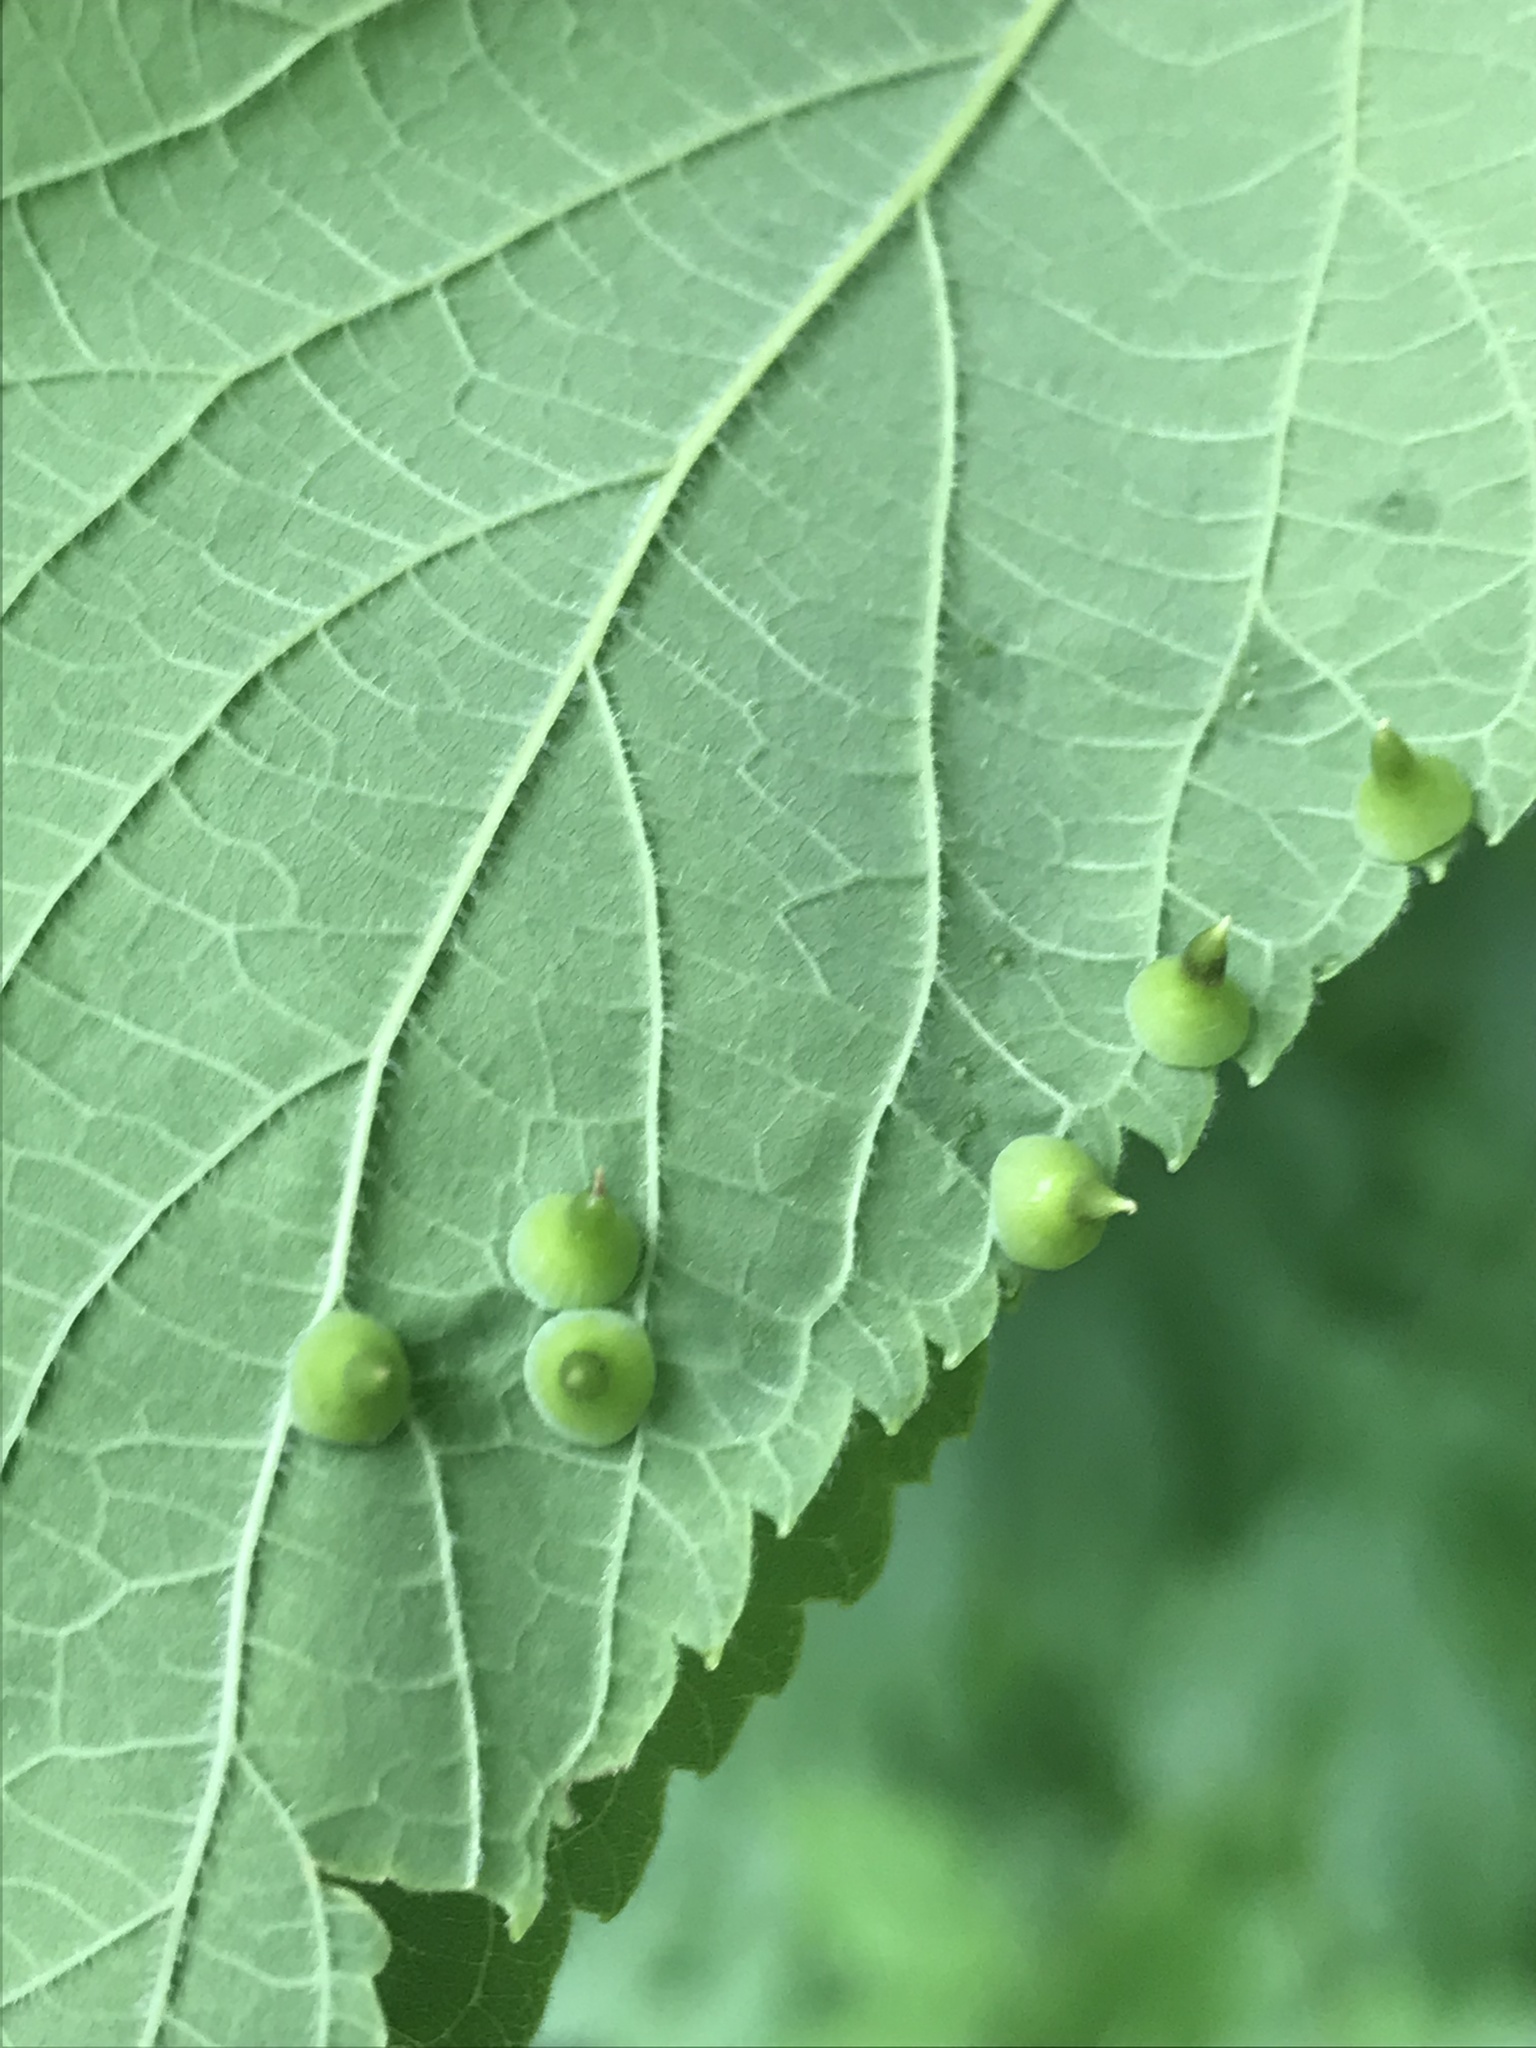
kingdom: Animalia
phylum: Arthropoda
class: Insecta
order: Diptera
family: Cecidomyiidae
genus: Celticecis
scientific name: Celticecis spiniformis
